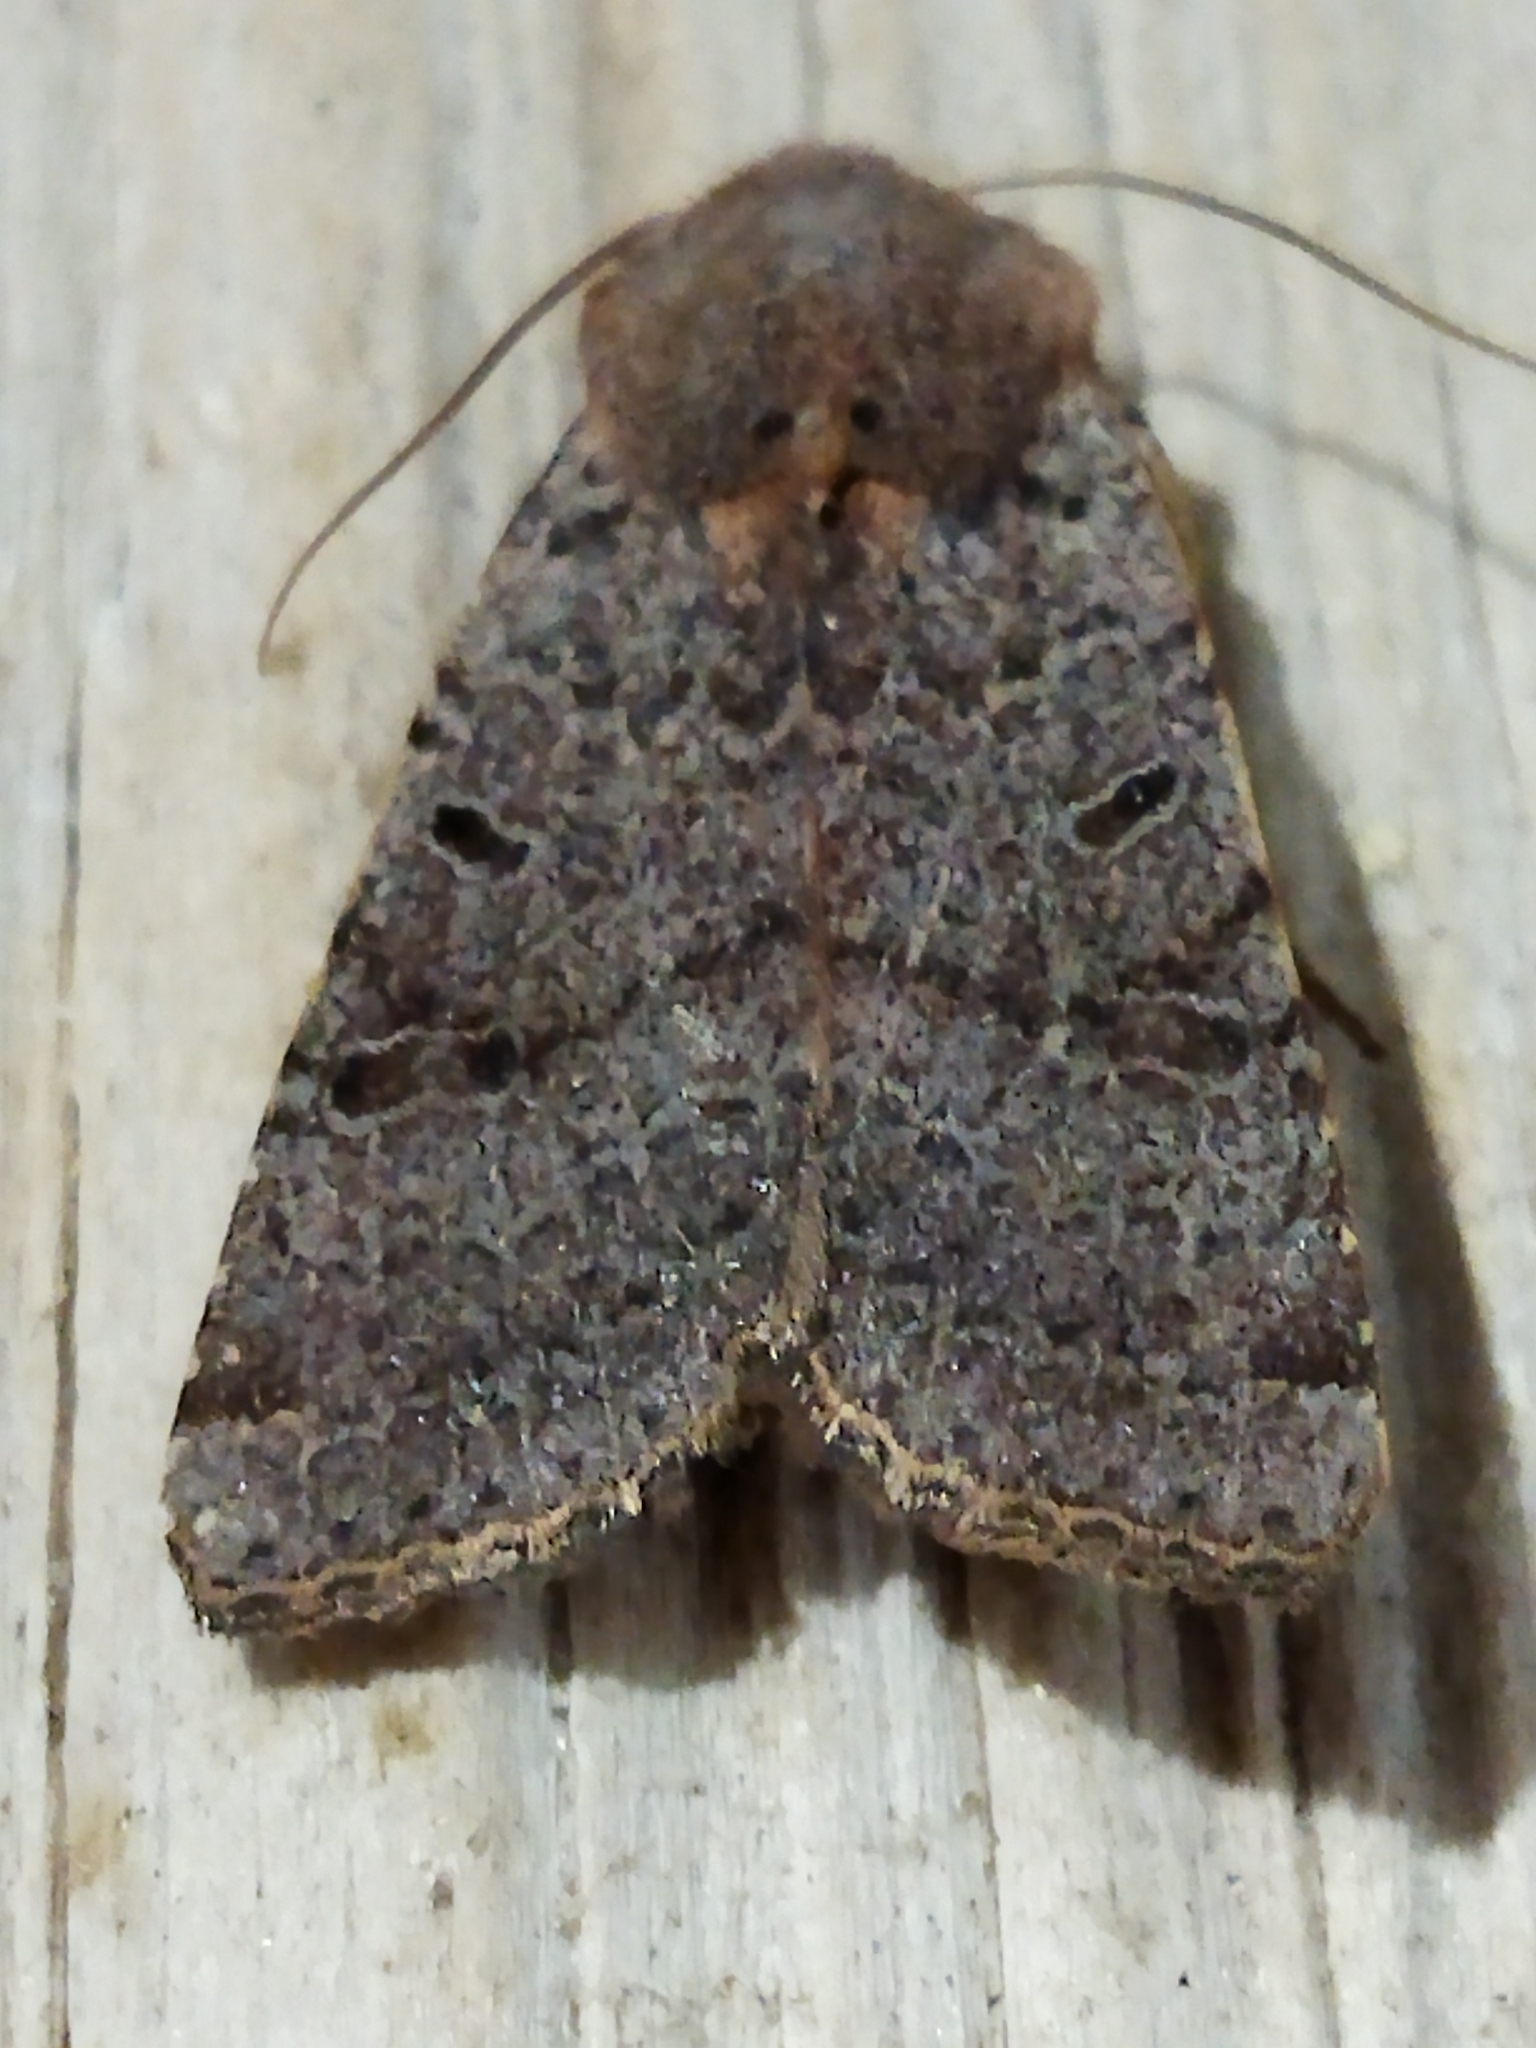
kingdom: Animalia
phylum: Arthropoda
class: Insecta
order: Lepidoptera
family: Noctuidae
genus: Agrochola
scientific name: Agrochola lychnidis
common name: Beaded chestnut
